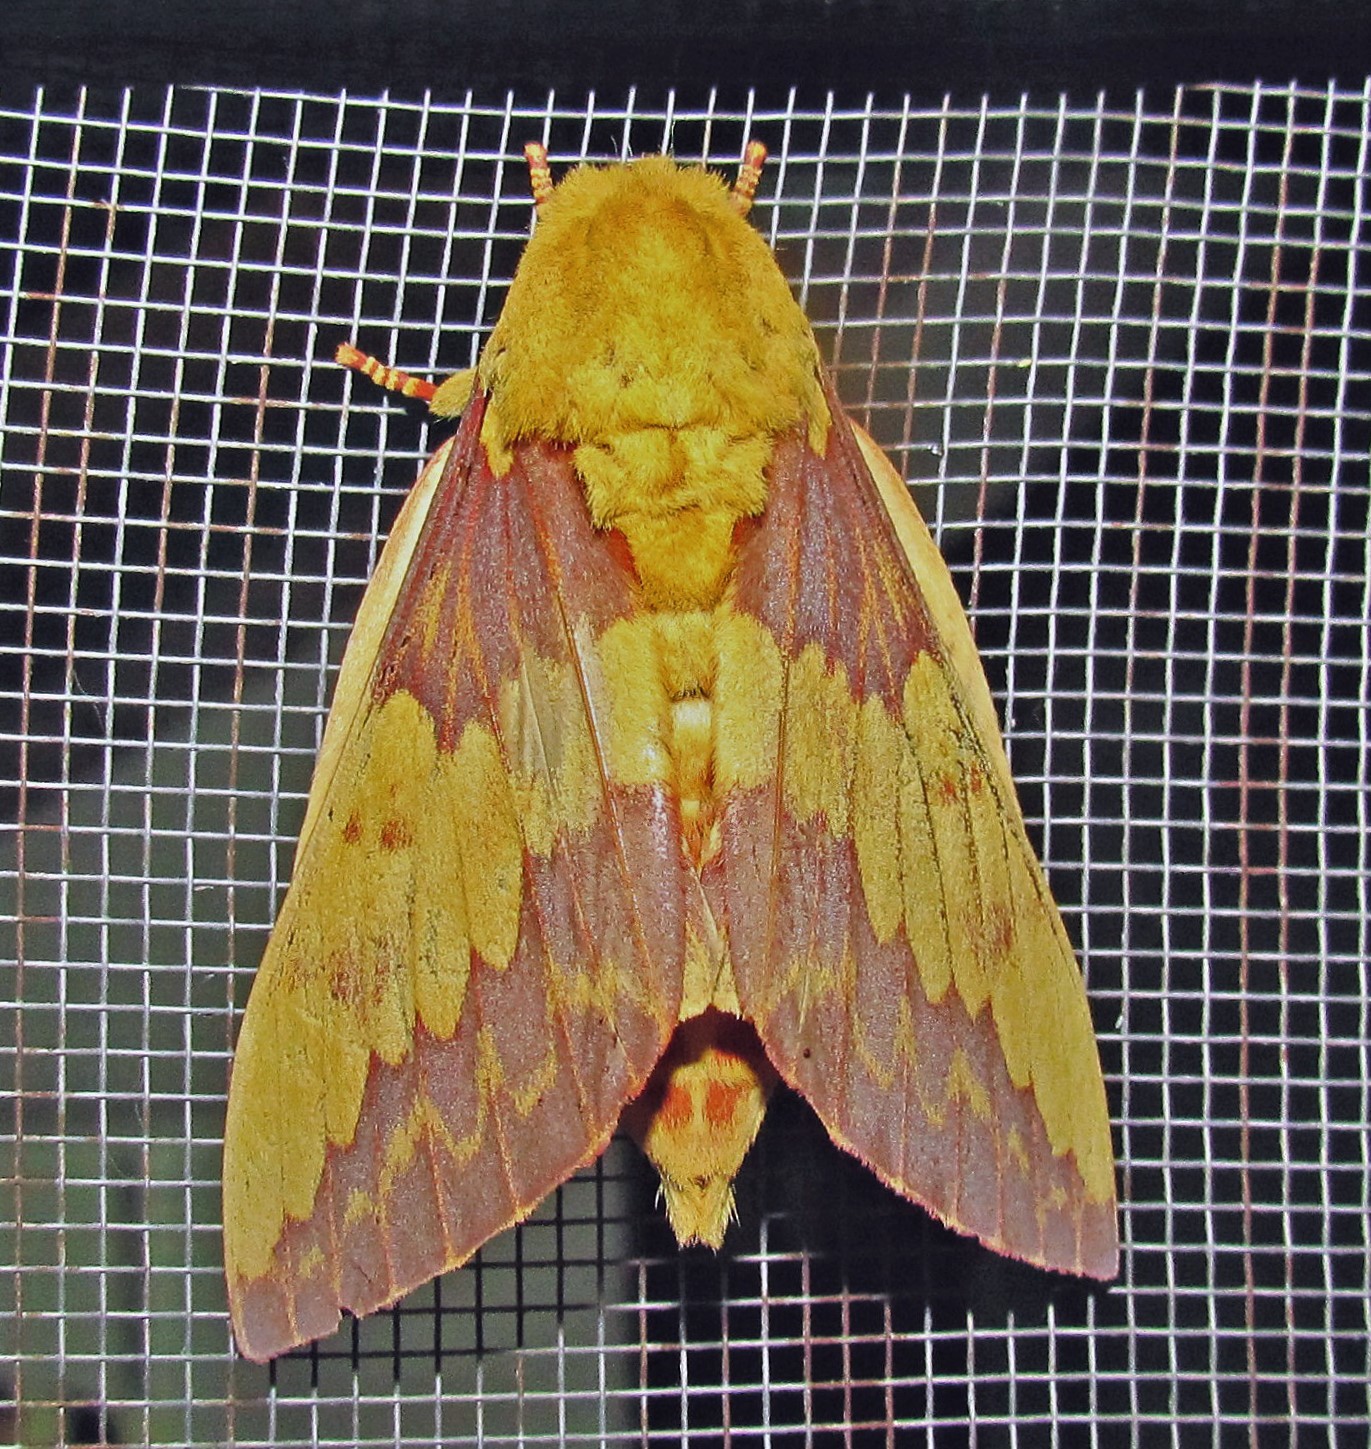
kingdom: Animalia
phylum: Arthropoda
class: Insecta
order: Lepidoptera
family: Saturniidae
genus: Citheronia
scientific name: Citheronia laocoon
